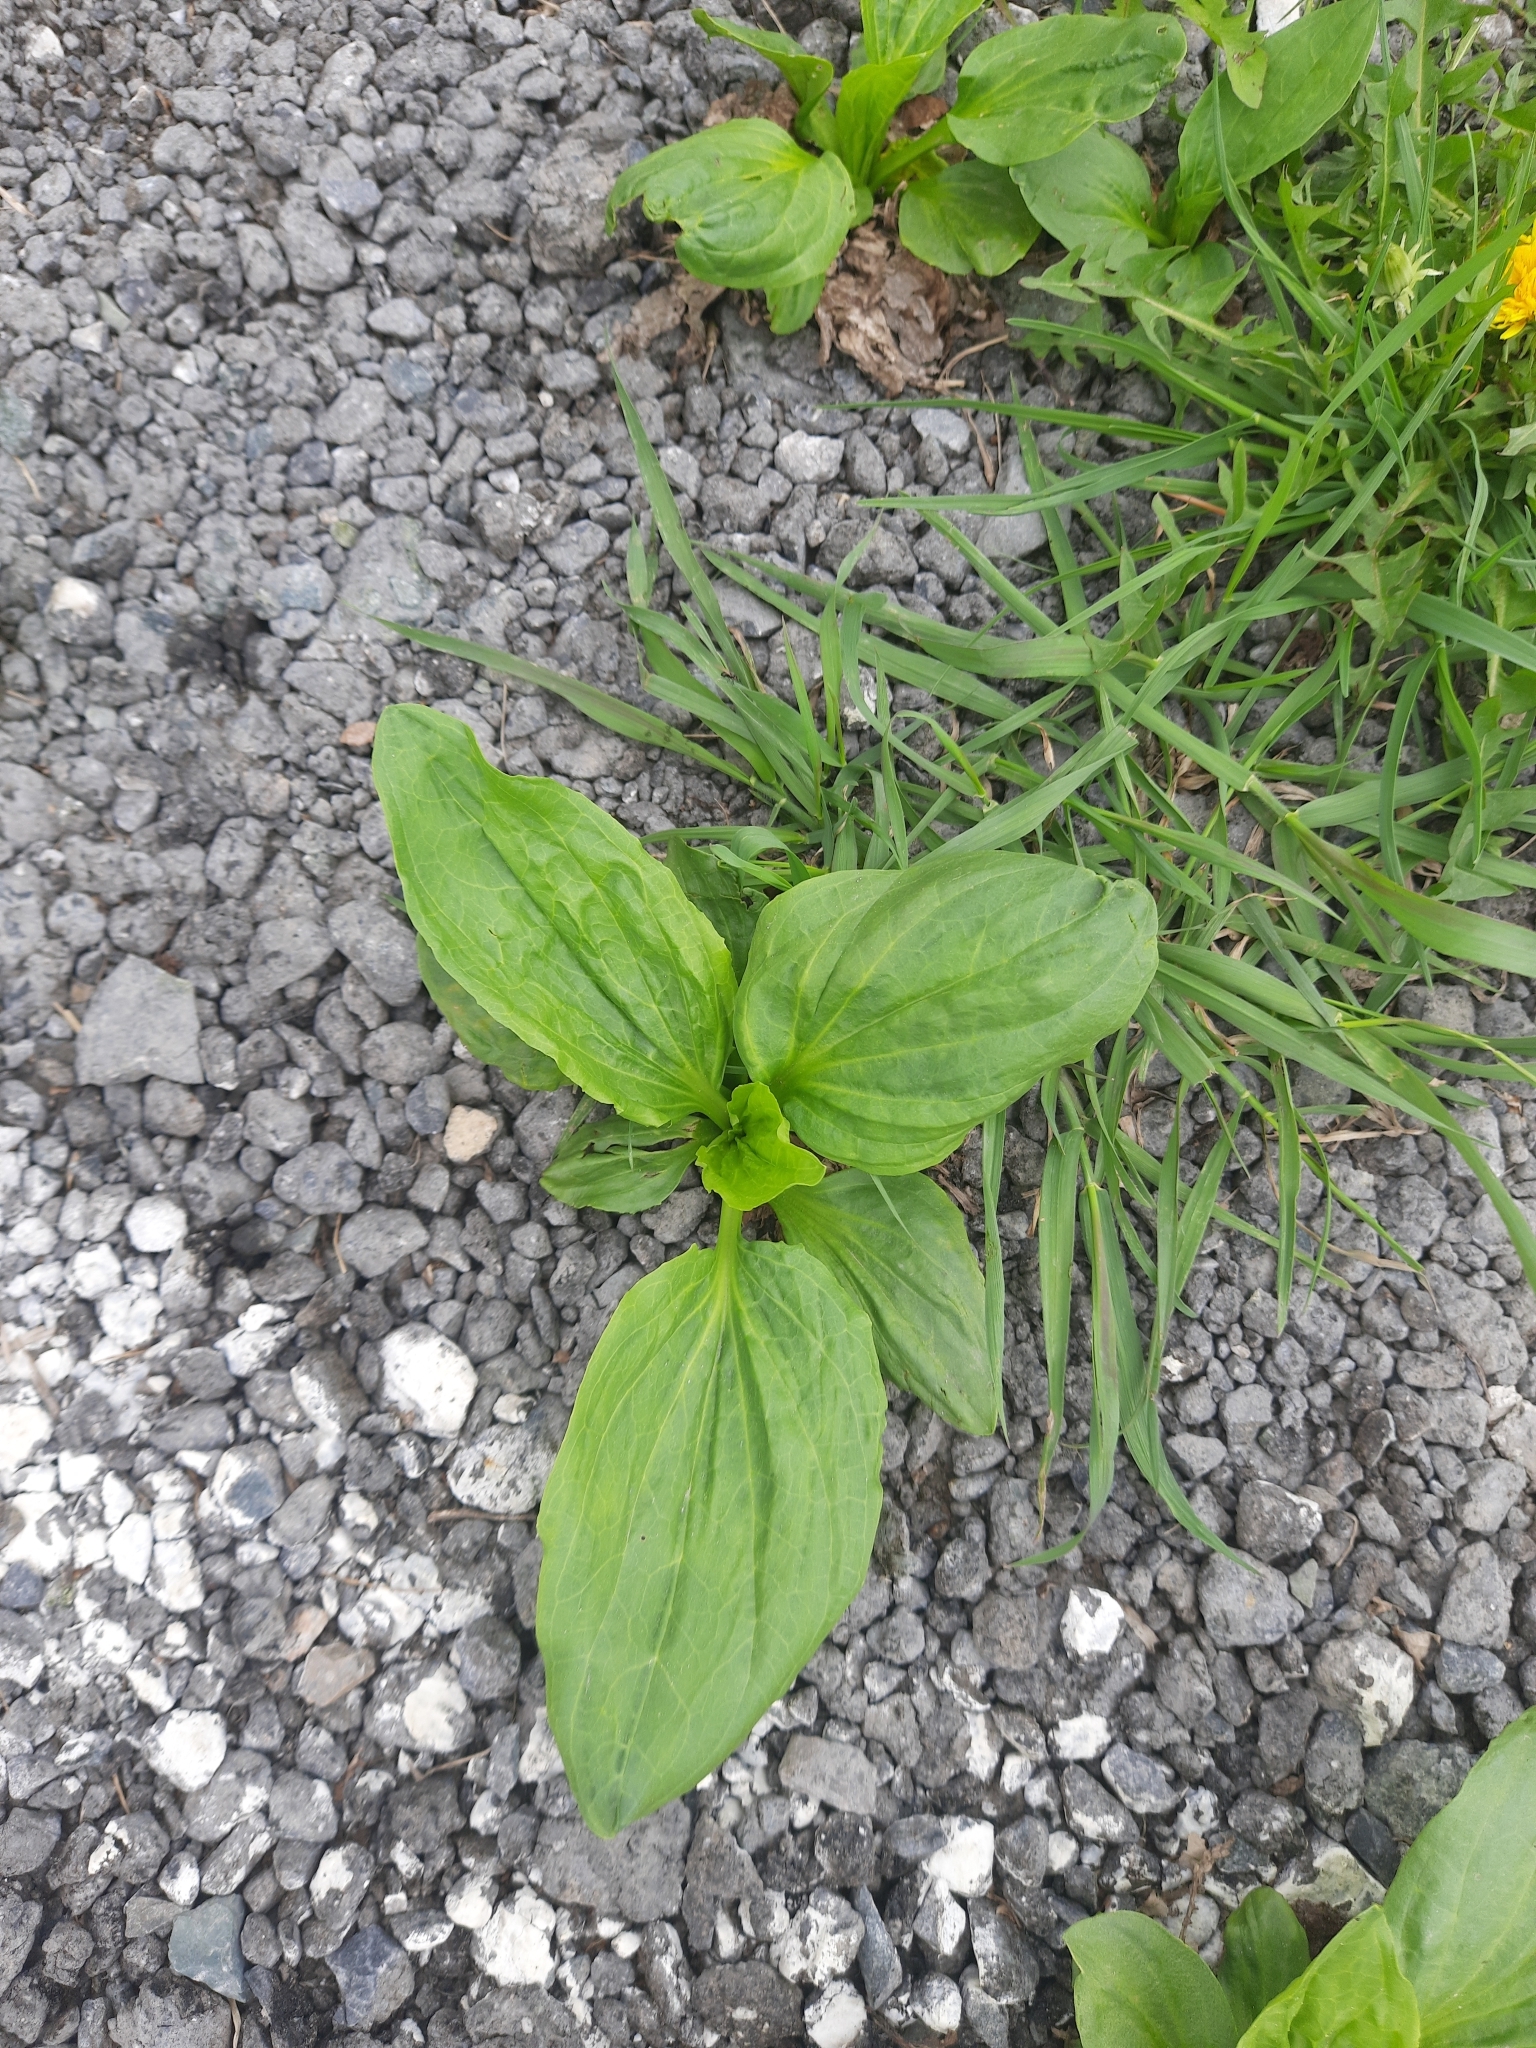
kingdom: Plantae
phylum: Tracheophyta
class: Magnoliopsida
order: Lamiales
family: Plantaginaceae
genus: Plantago
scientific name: Plantago major
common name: Common plantain
